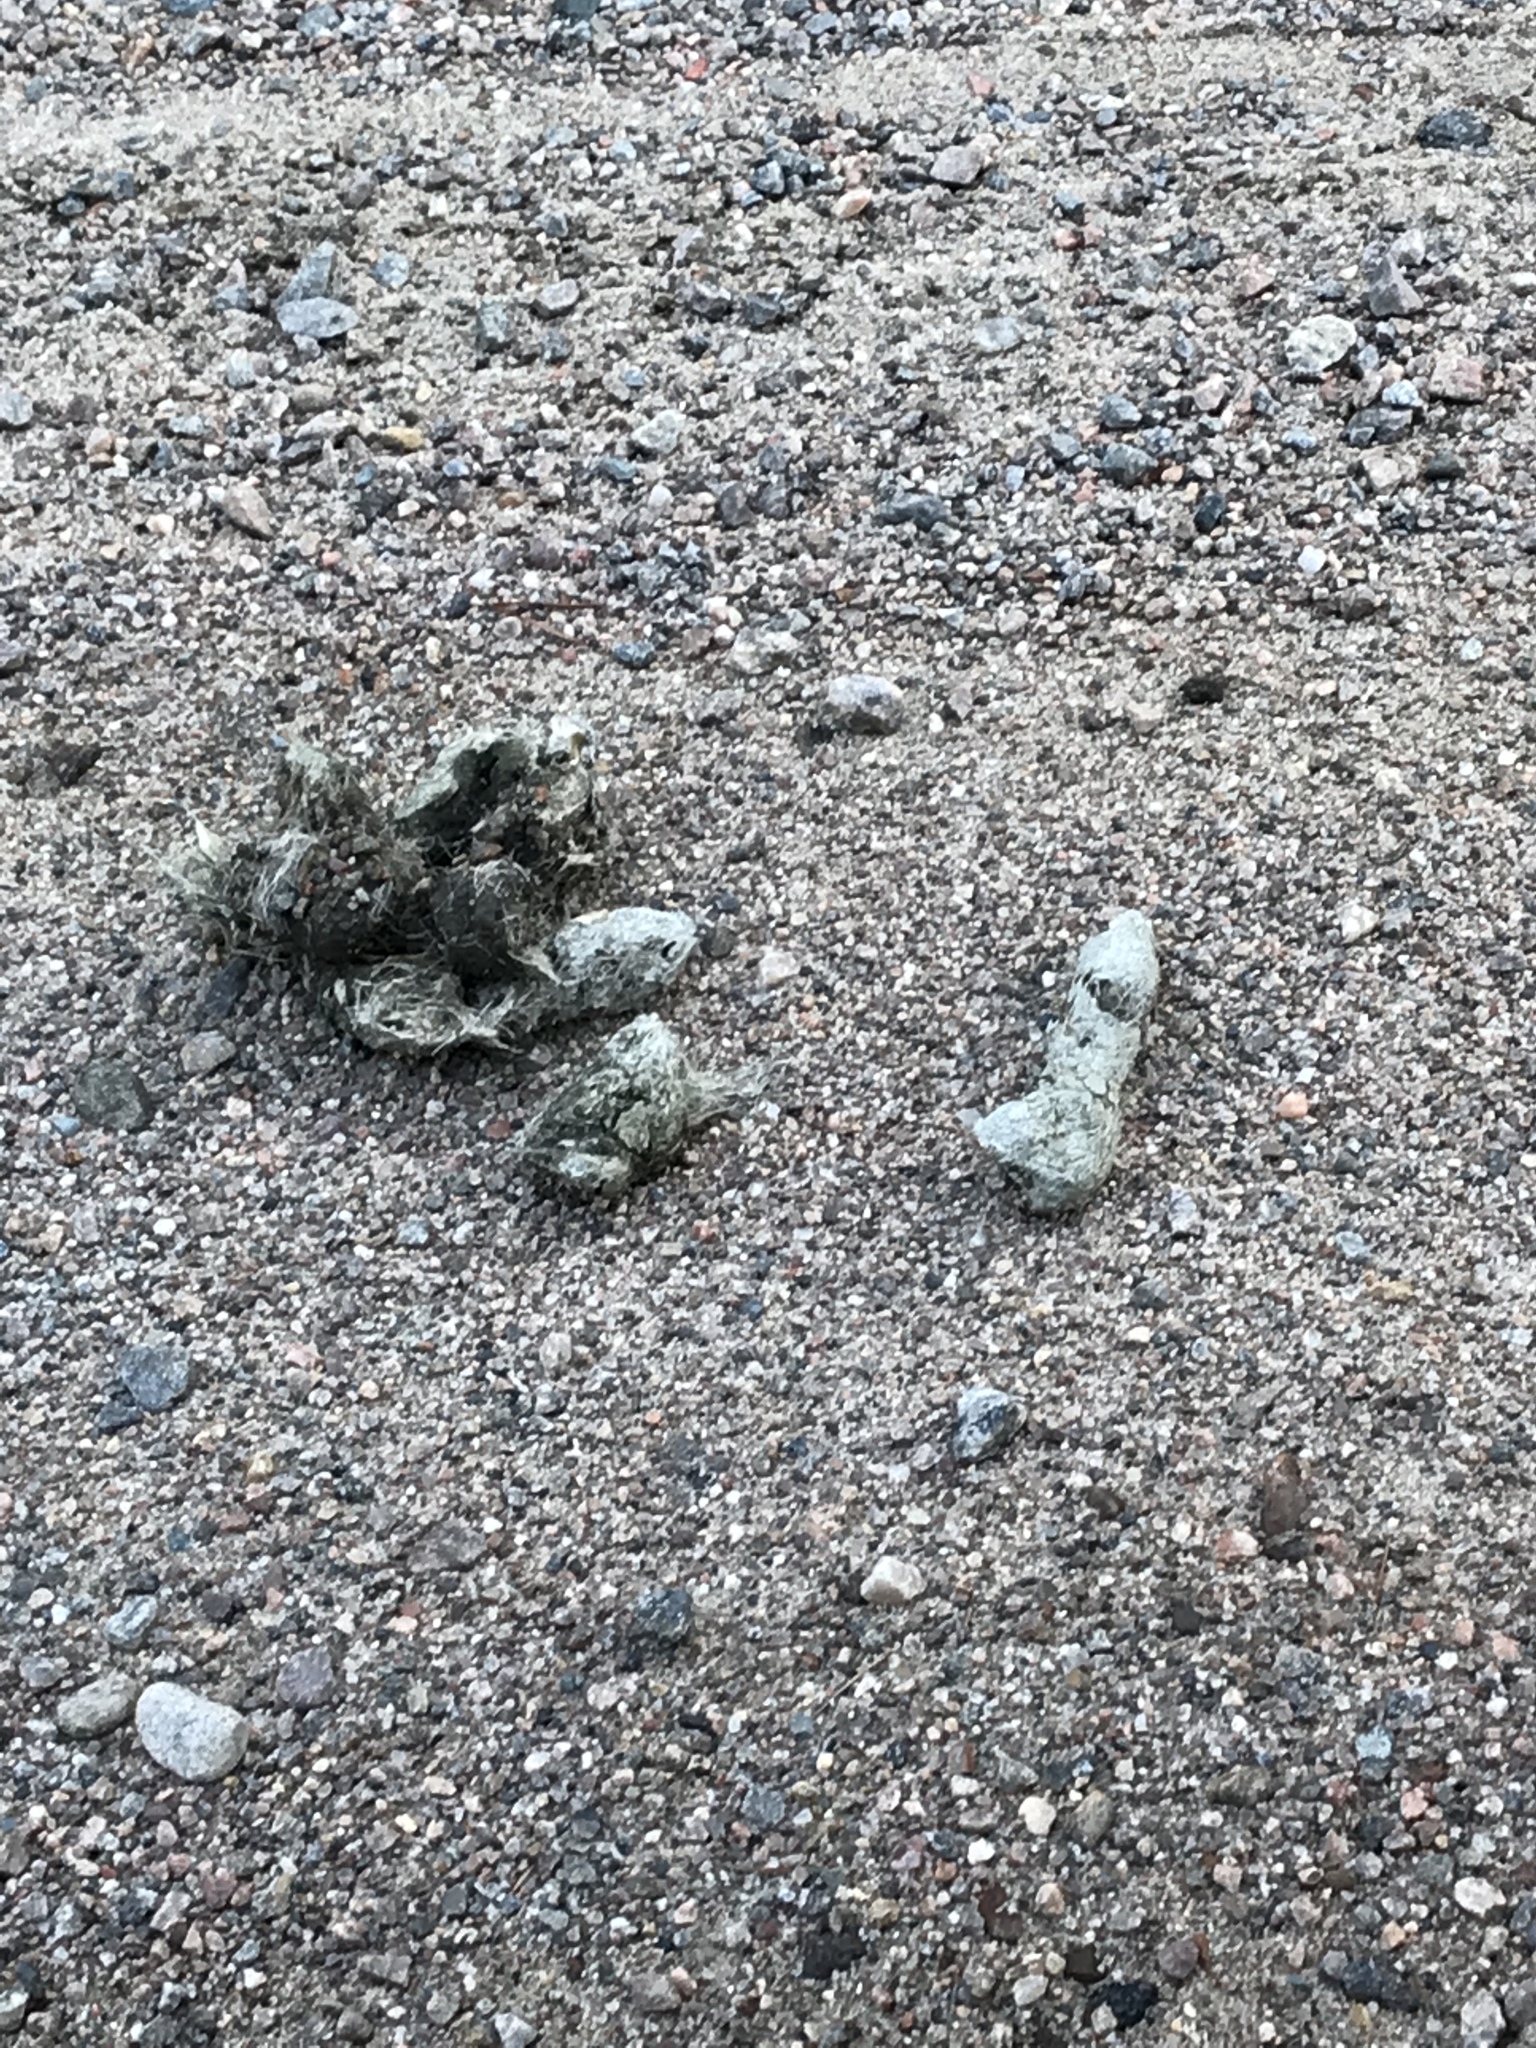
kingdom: Animalia
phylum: Chordata
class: Mammalia
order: Carnivora
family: Canidae
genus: Canis
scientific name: Canis lycaon
